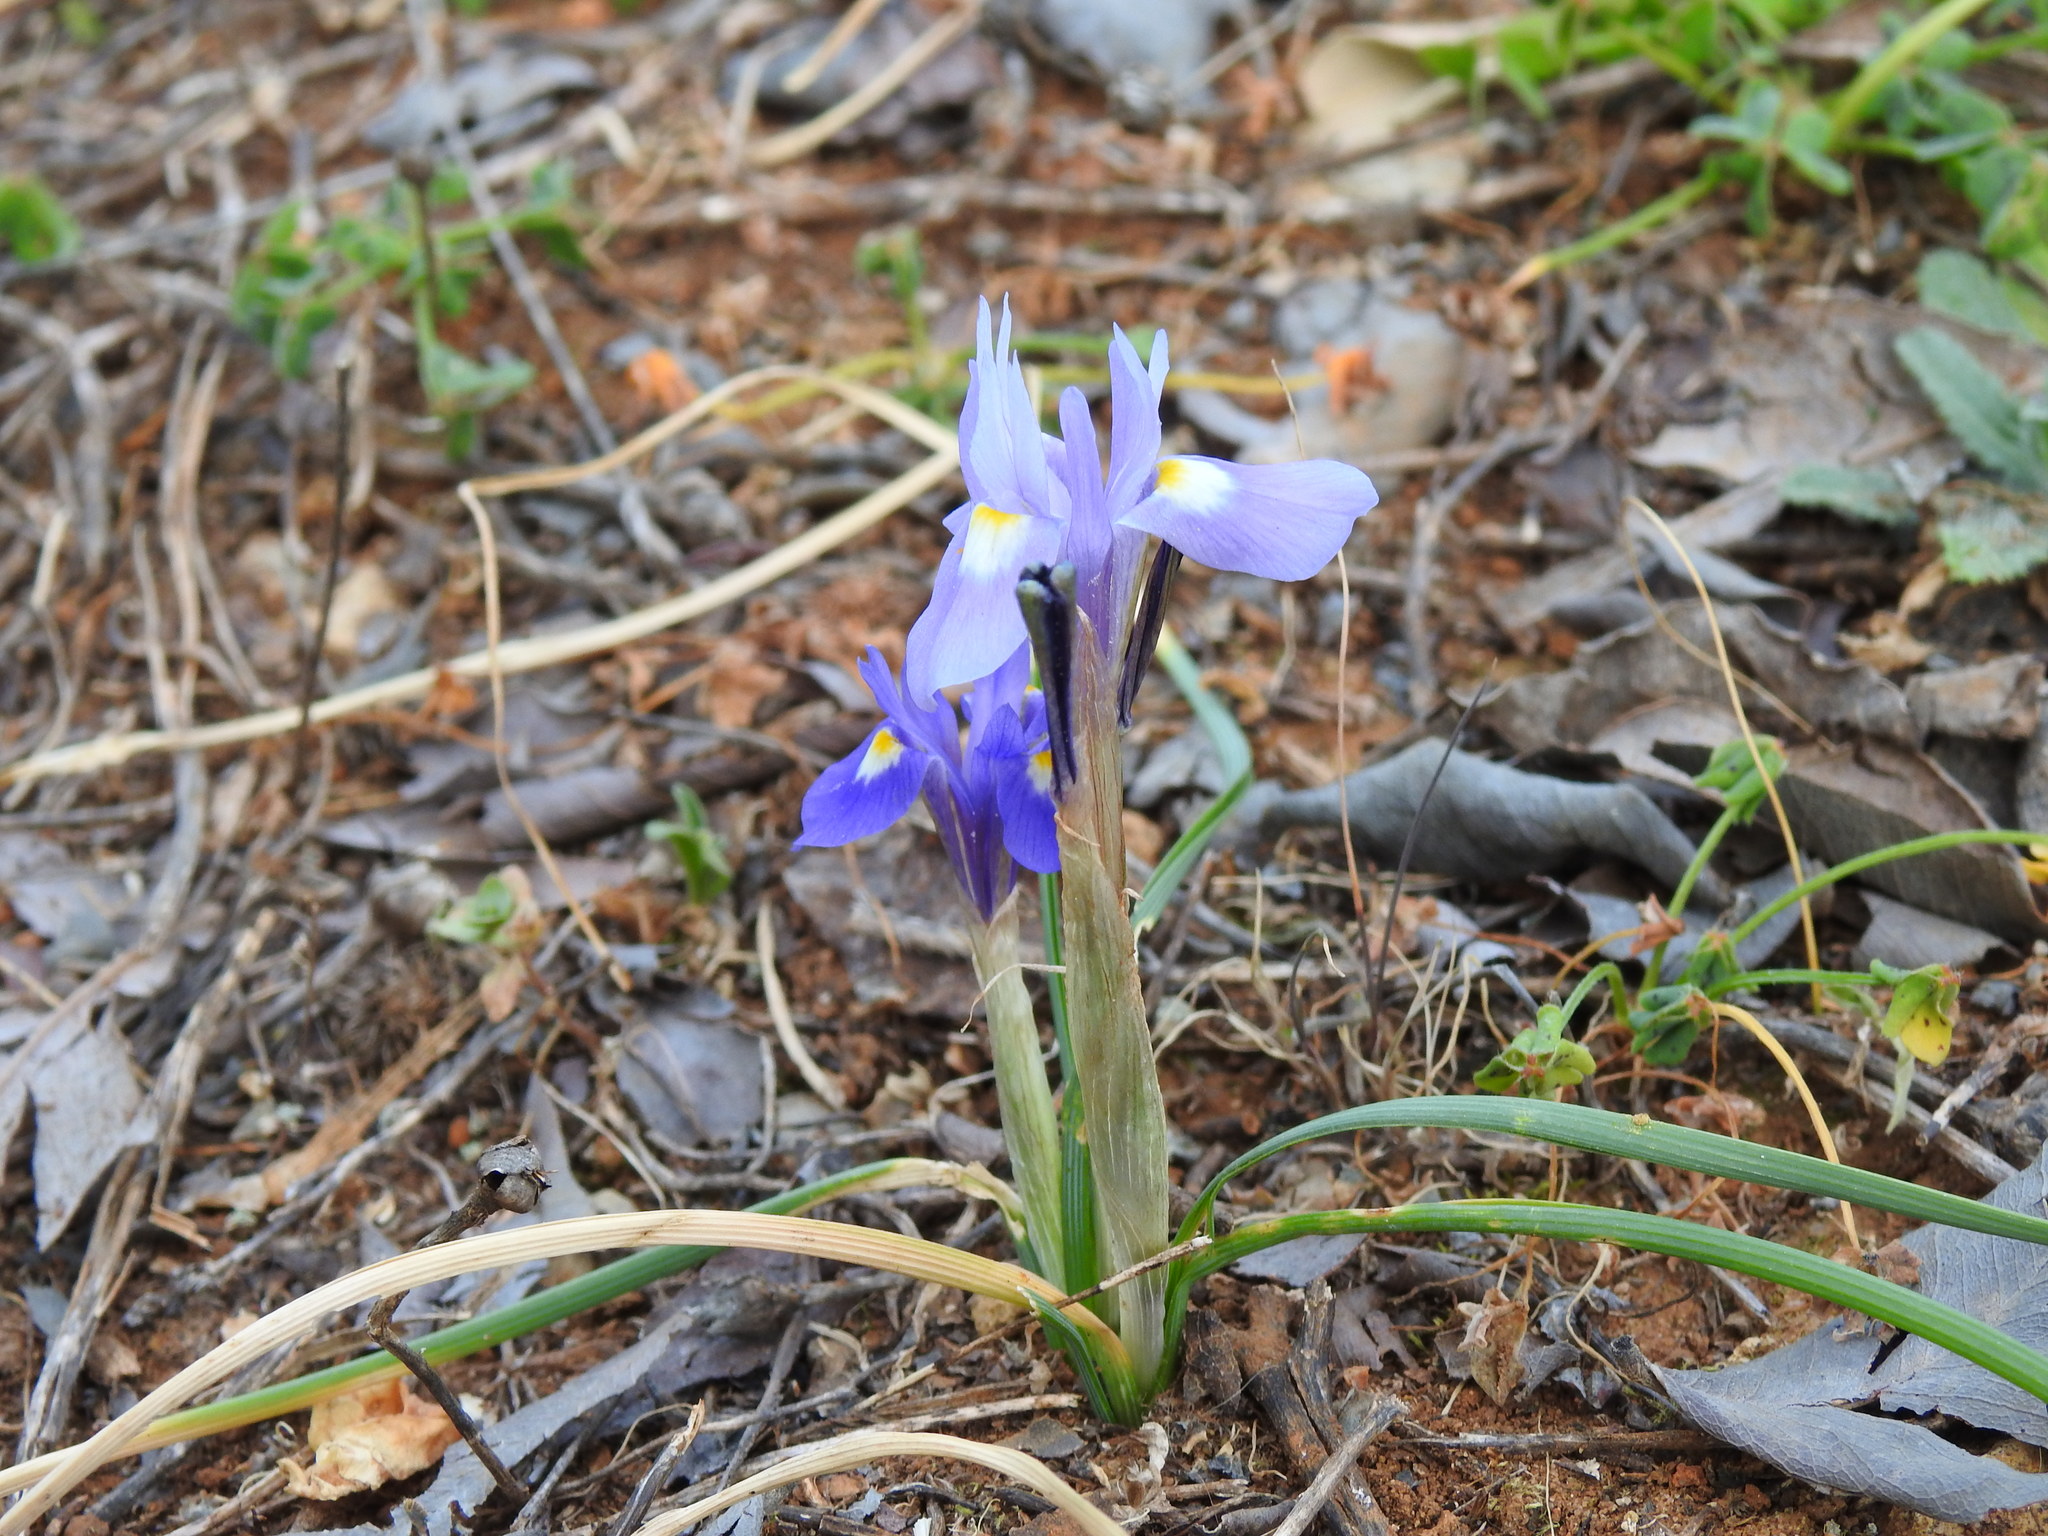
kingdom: Plantae
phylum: Tracheophyta
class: Liliopsida
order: Asparagales
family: Iridaceae
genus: Moraea
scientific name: Moraea sisyrinchium
